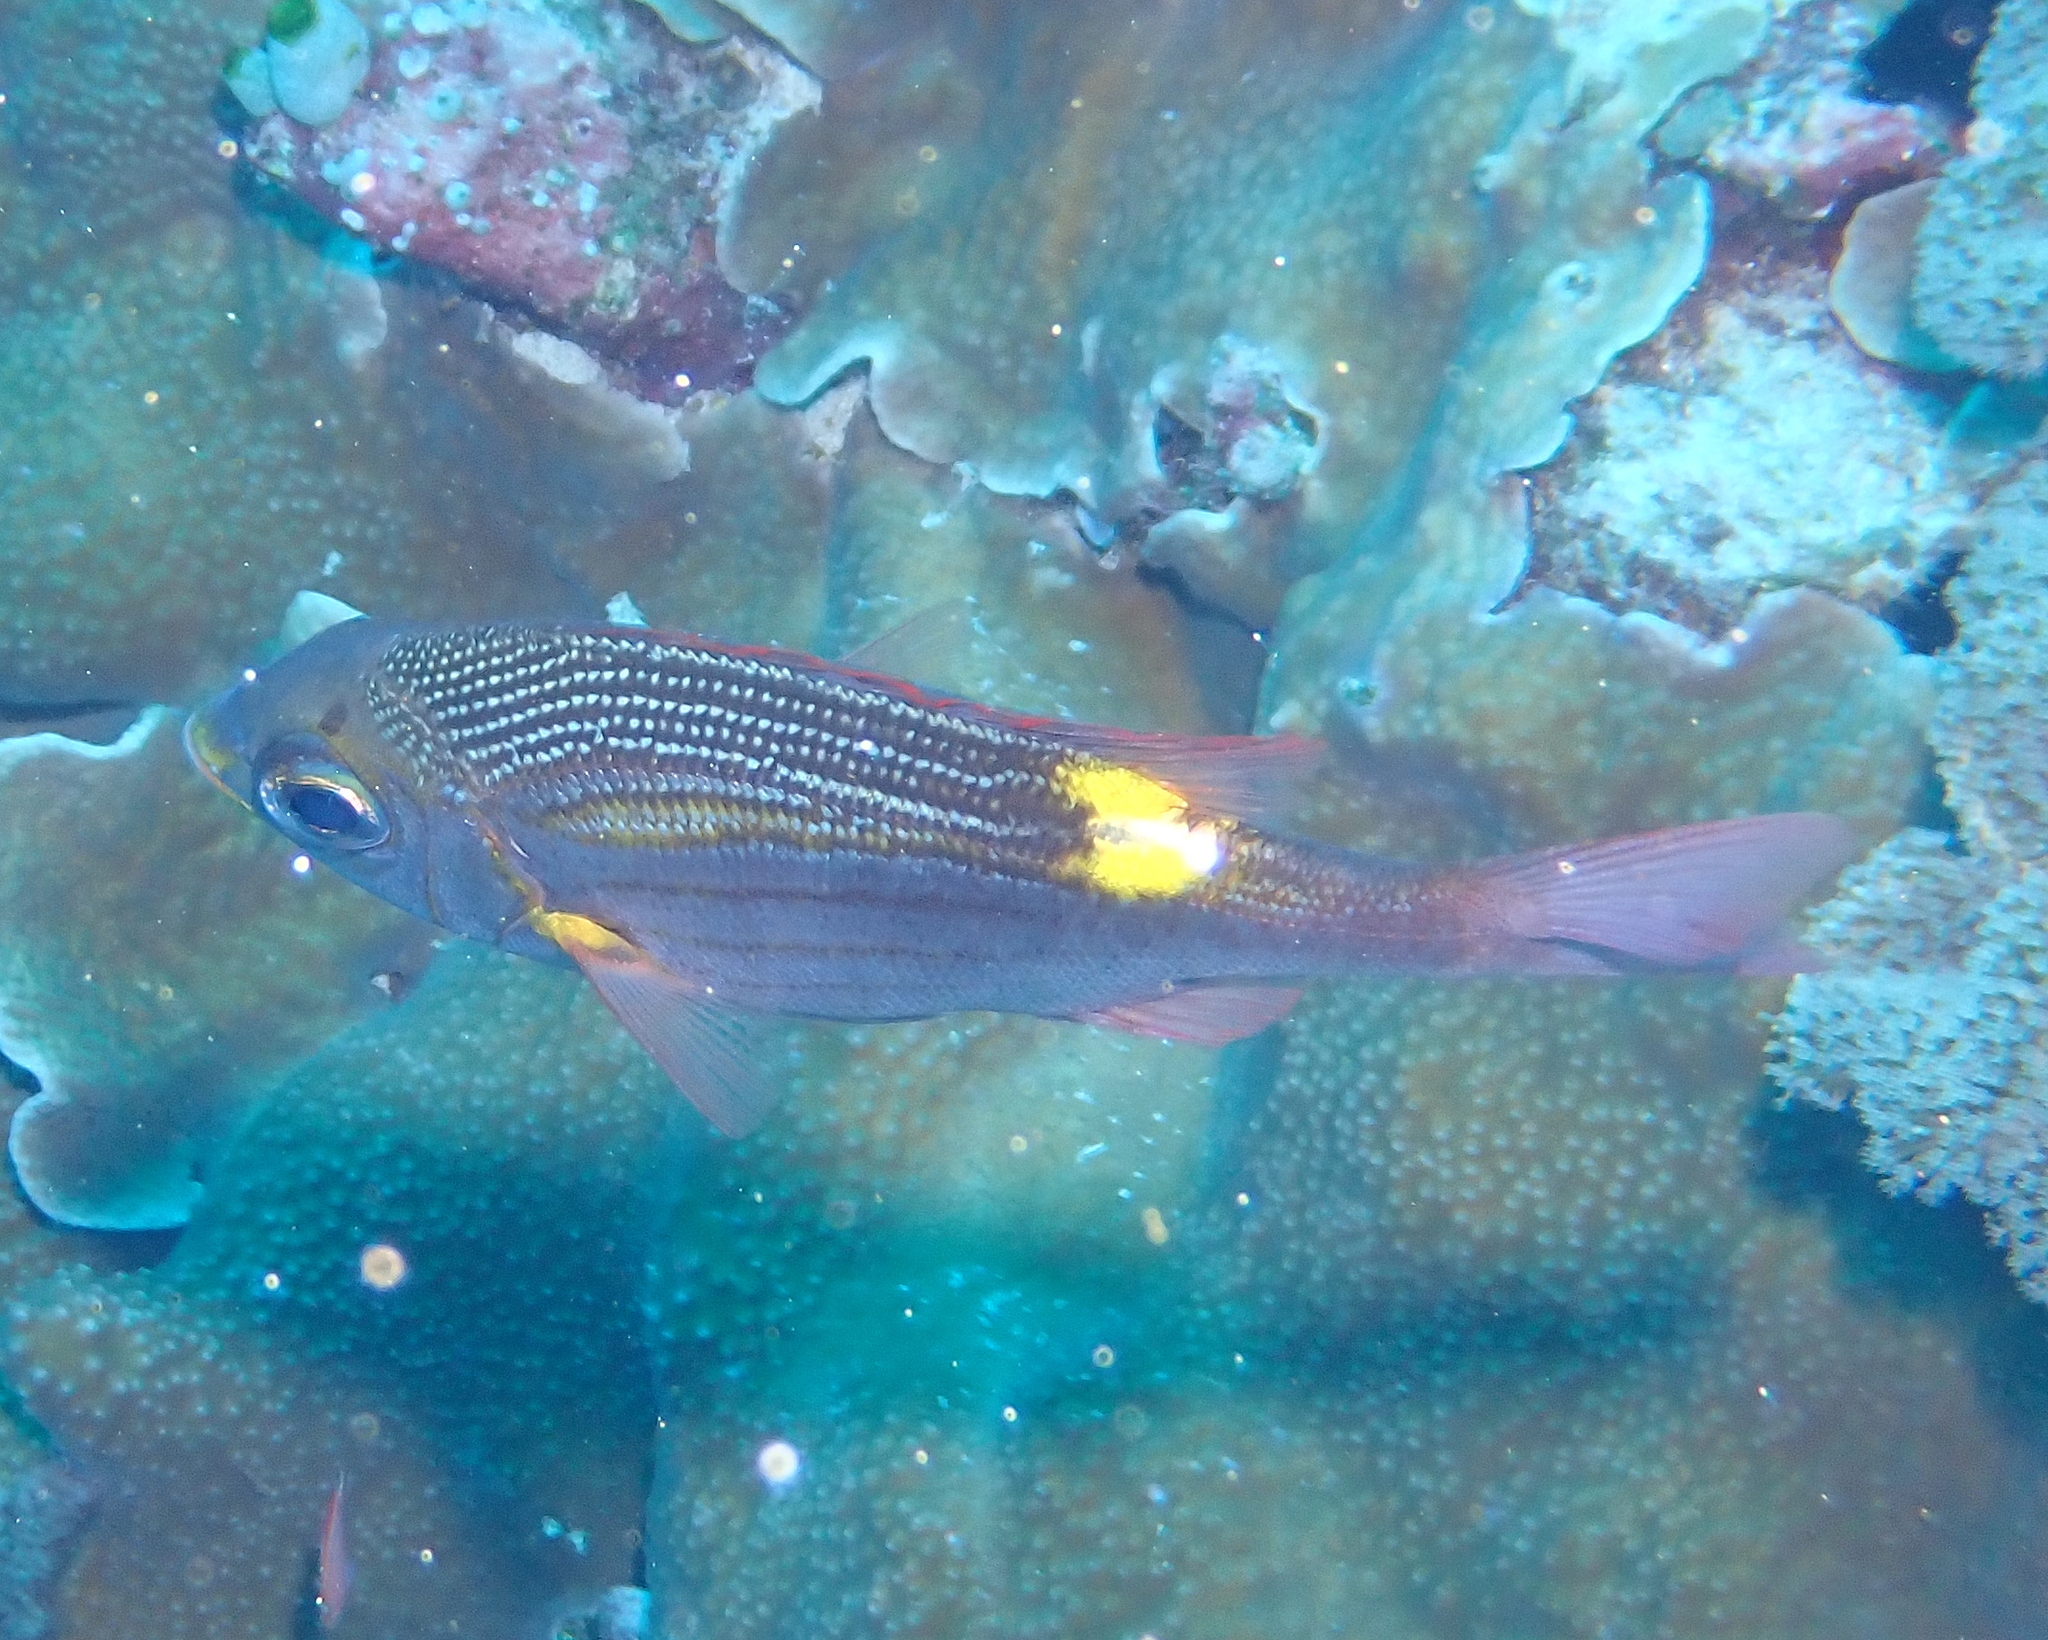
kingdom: Animalia
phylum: Chordata
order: Perciformes
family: Lethrinidae
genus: Gnathodentex
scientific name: Gnathodentex aureolineatus
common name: Gold-lined sea bream
